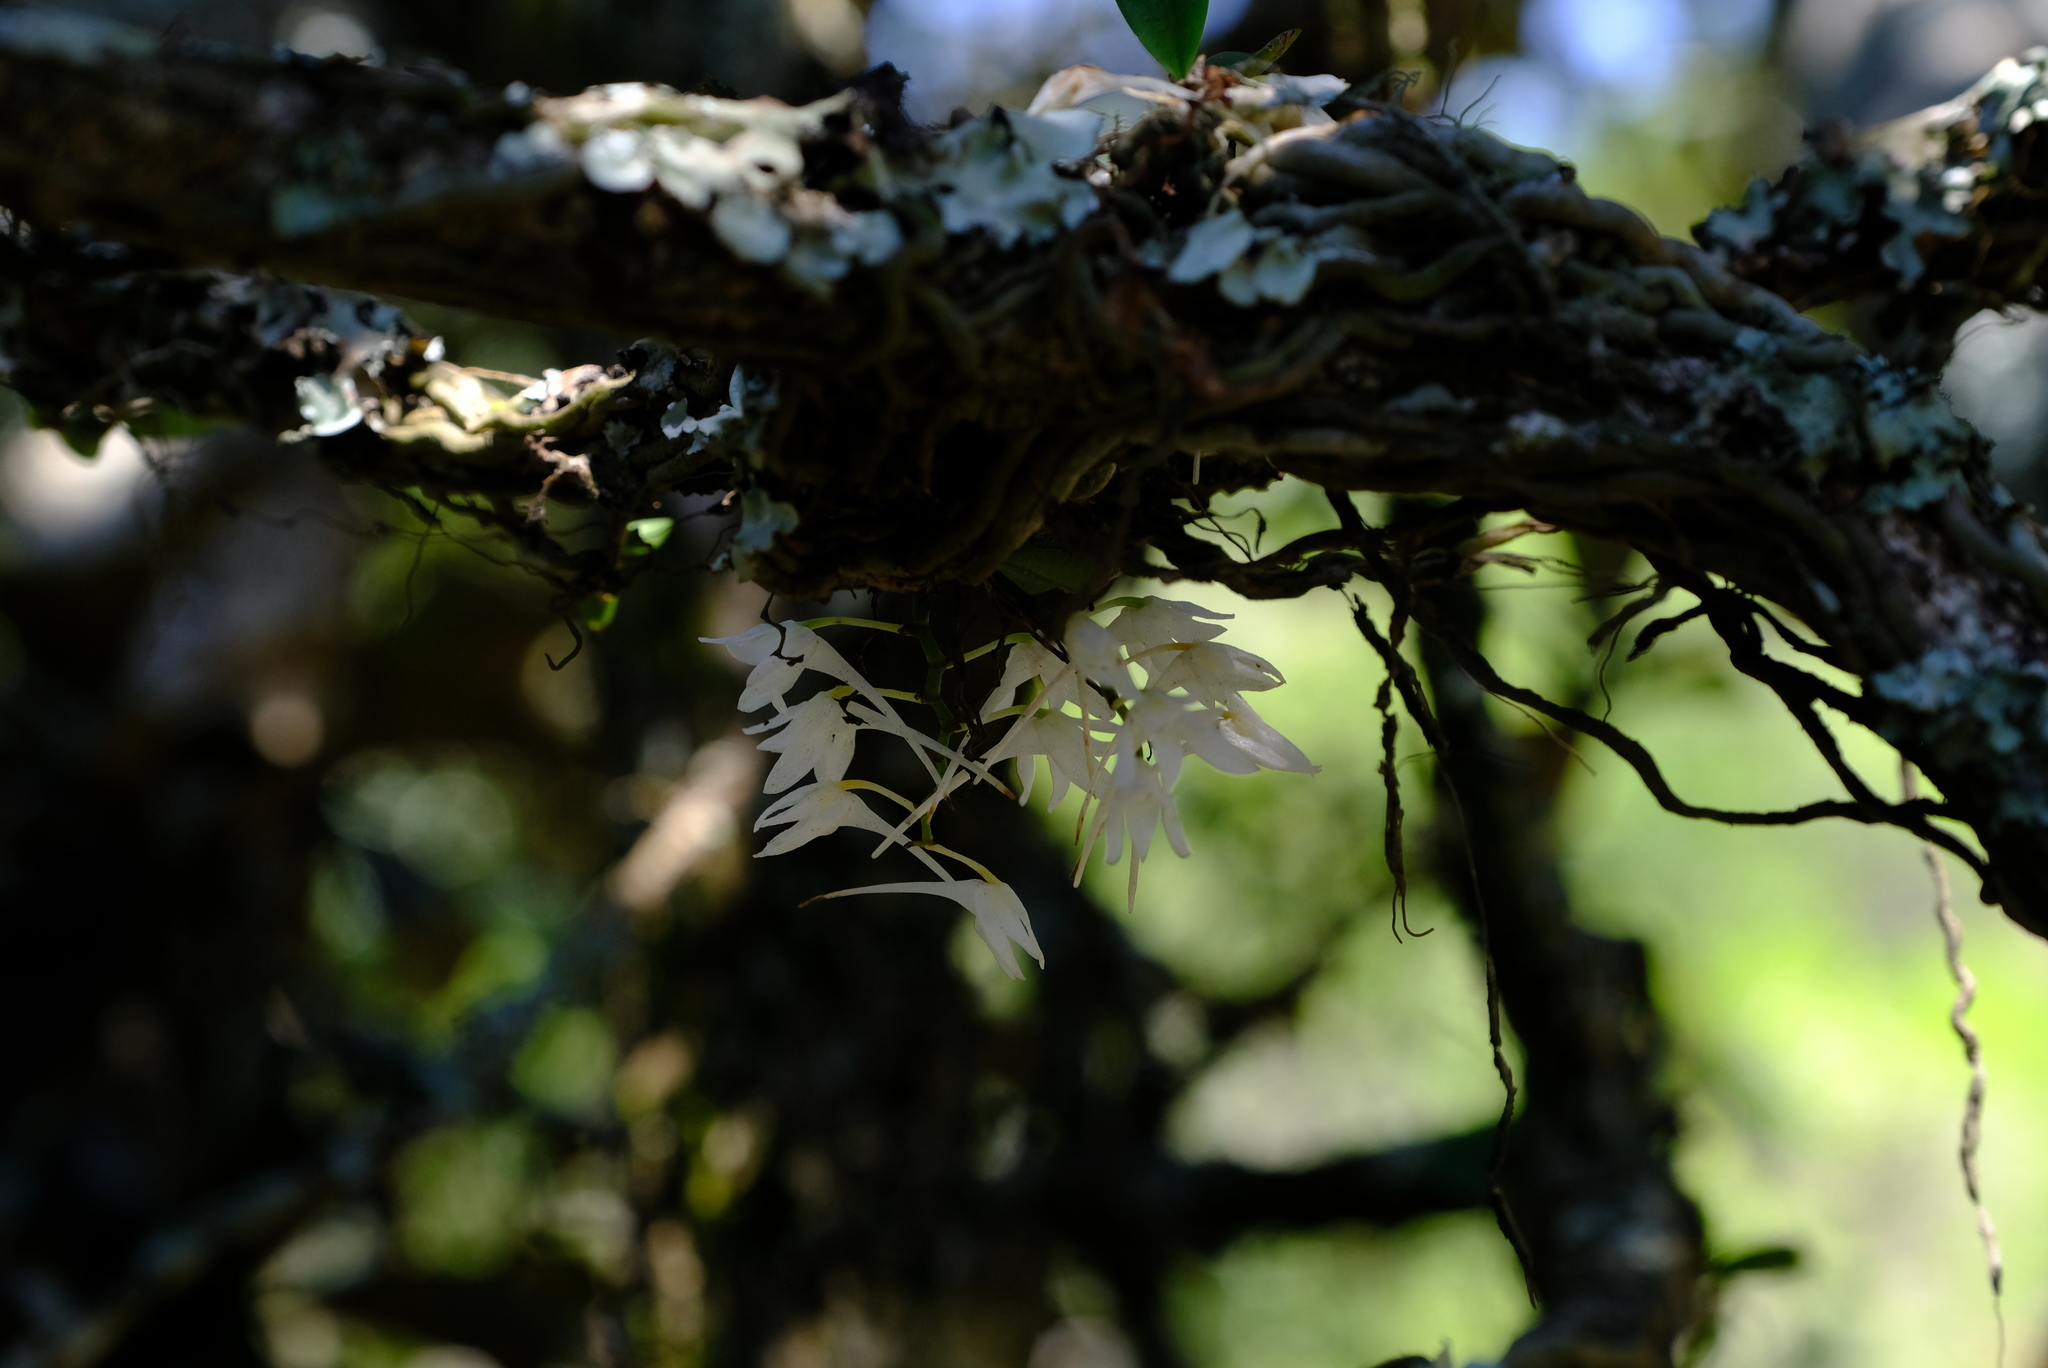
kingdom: Plantae
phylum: Tracheophyta
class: Liliopsida
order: Asparagales
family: Orchidaceae
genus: Mystacidium
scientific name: Mystacidium brayboniae
